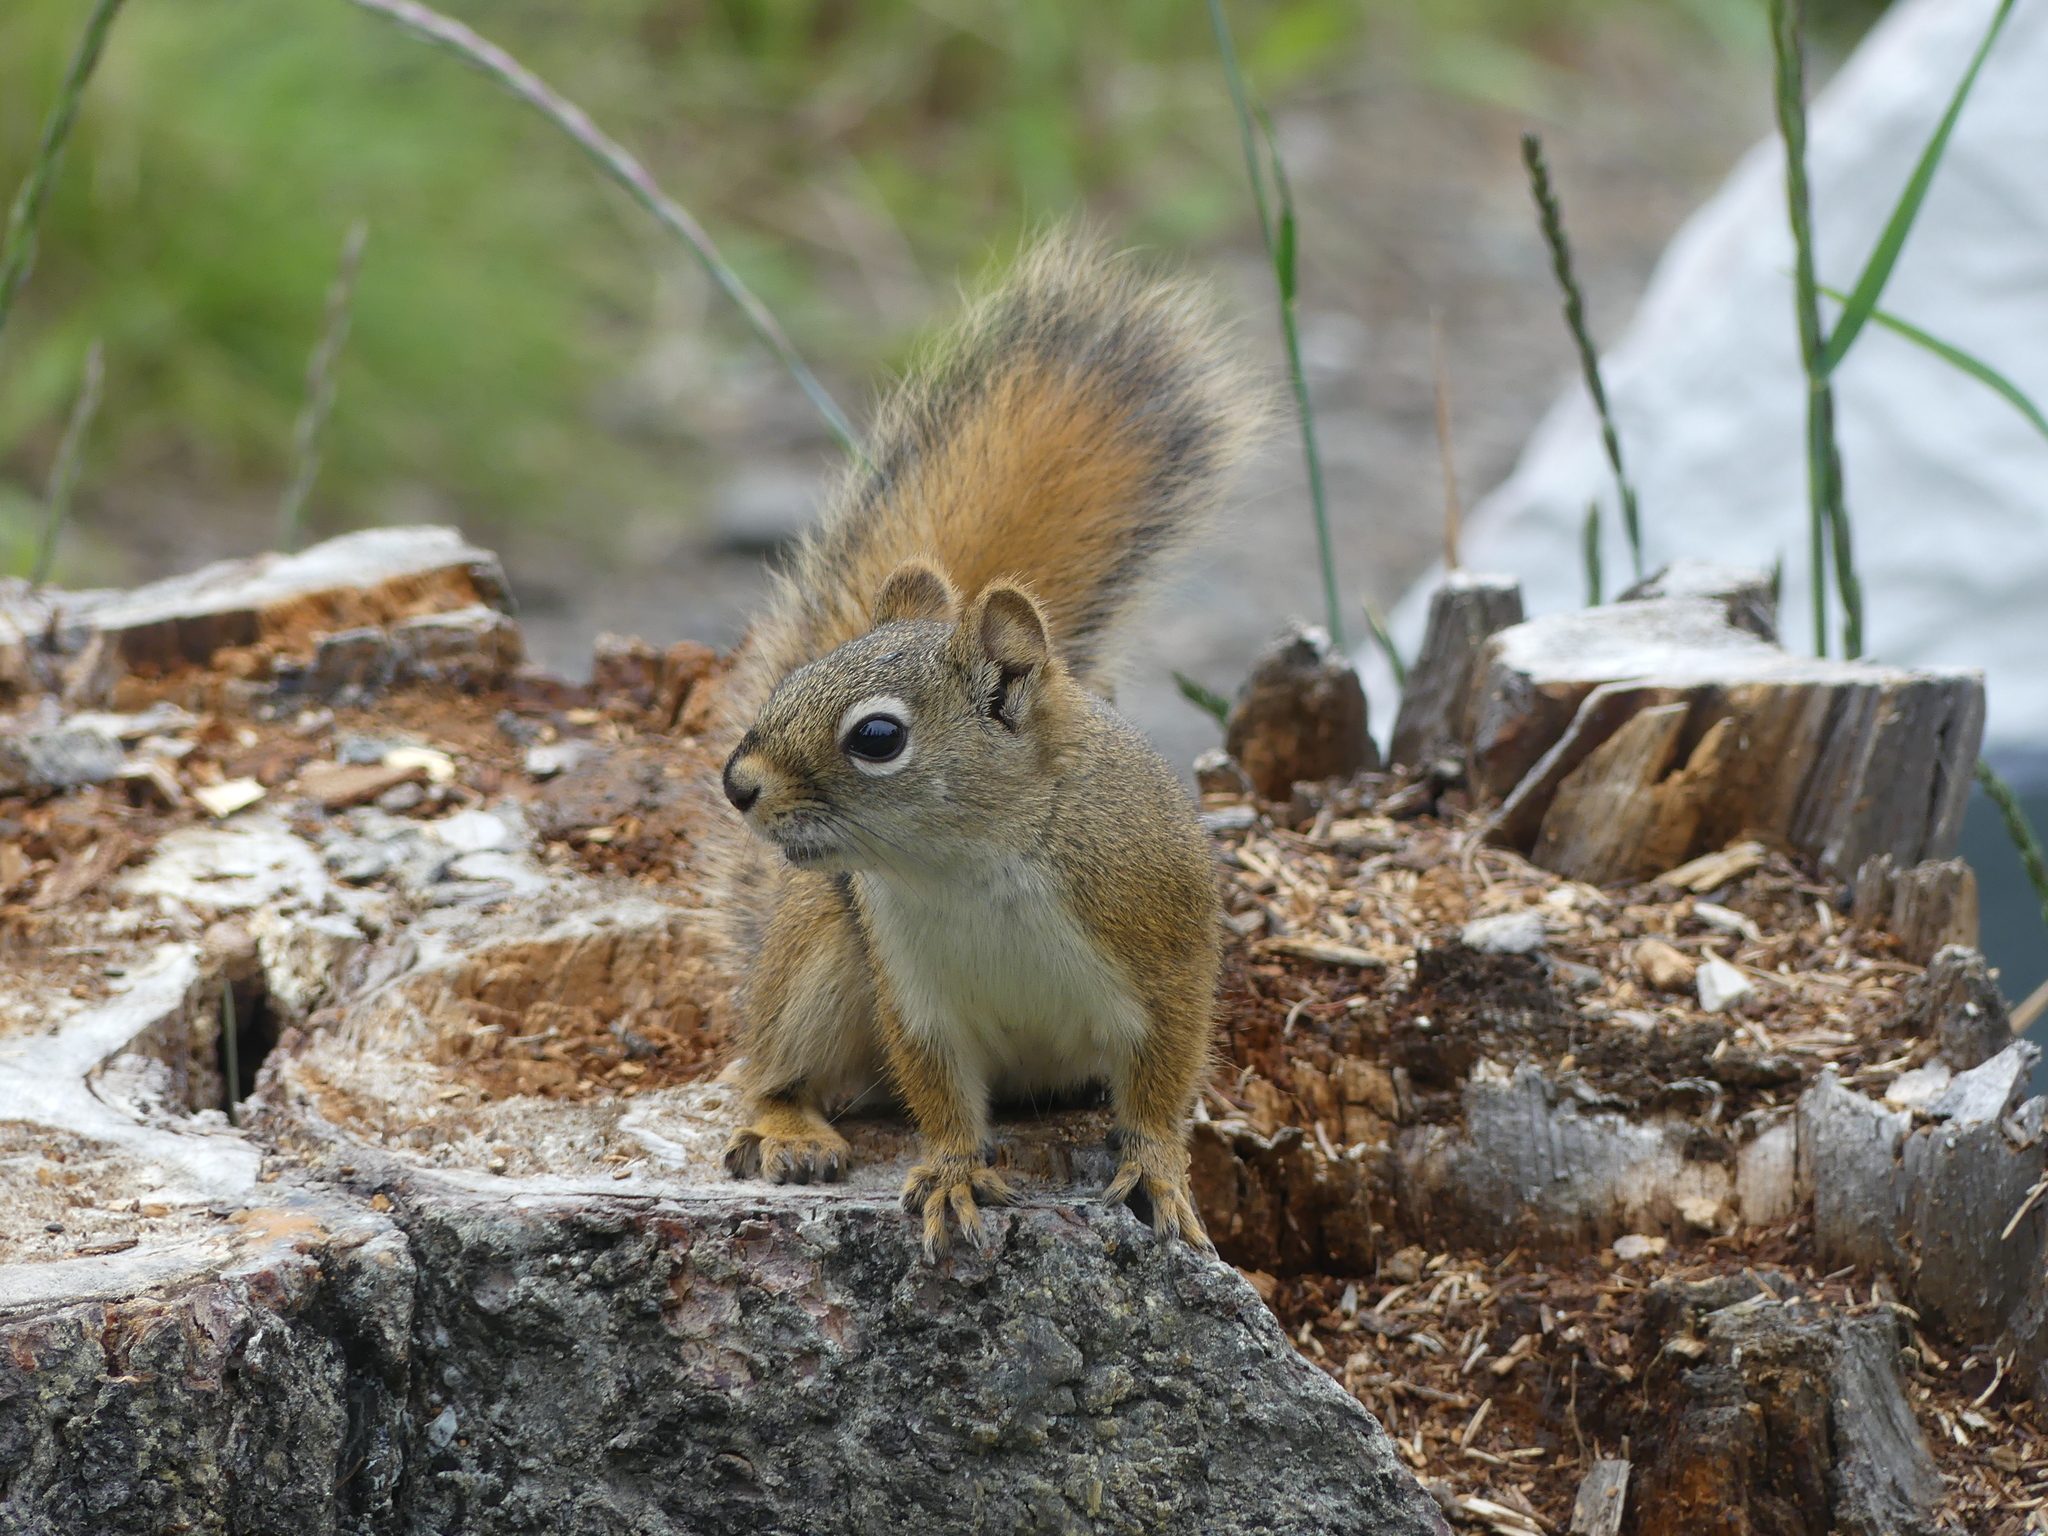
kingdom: Animalia
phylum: Chordata
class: Mammalia
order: Rodentia
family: Sciuridae
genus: Tamiasciurus
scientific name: Tamiasciurus hudsonicus
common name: Red squirrel
